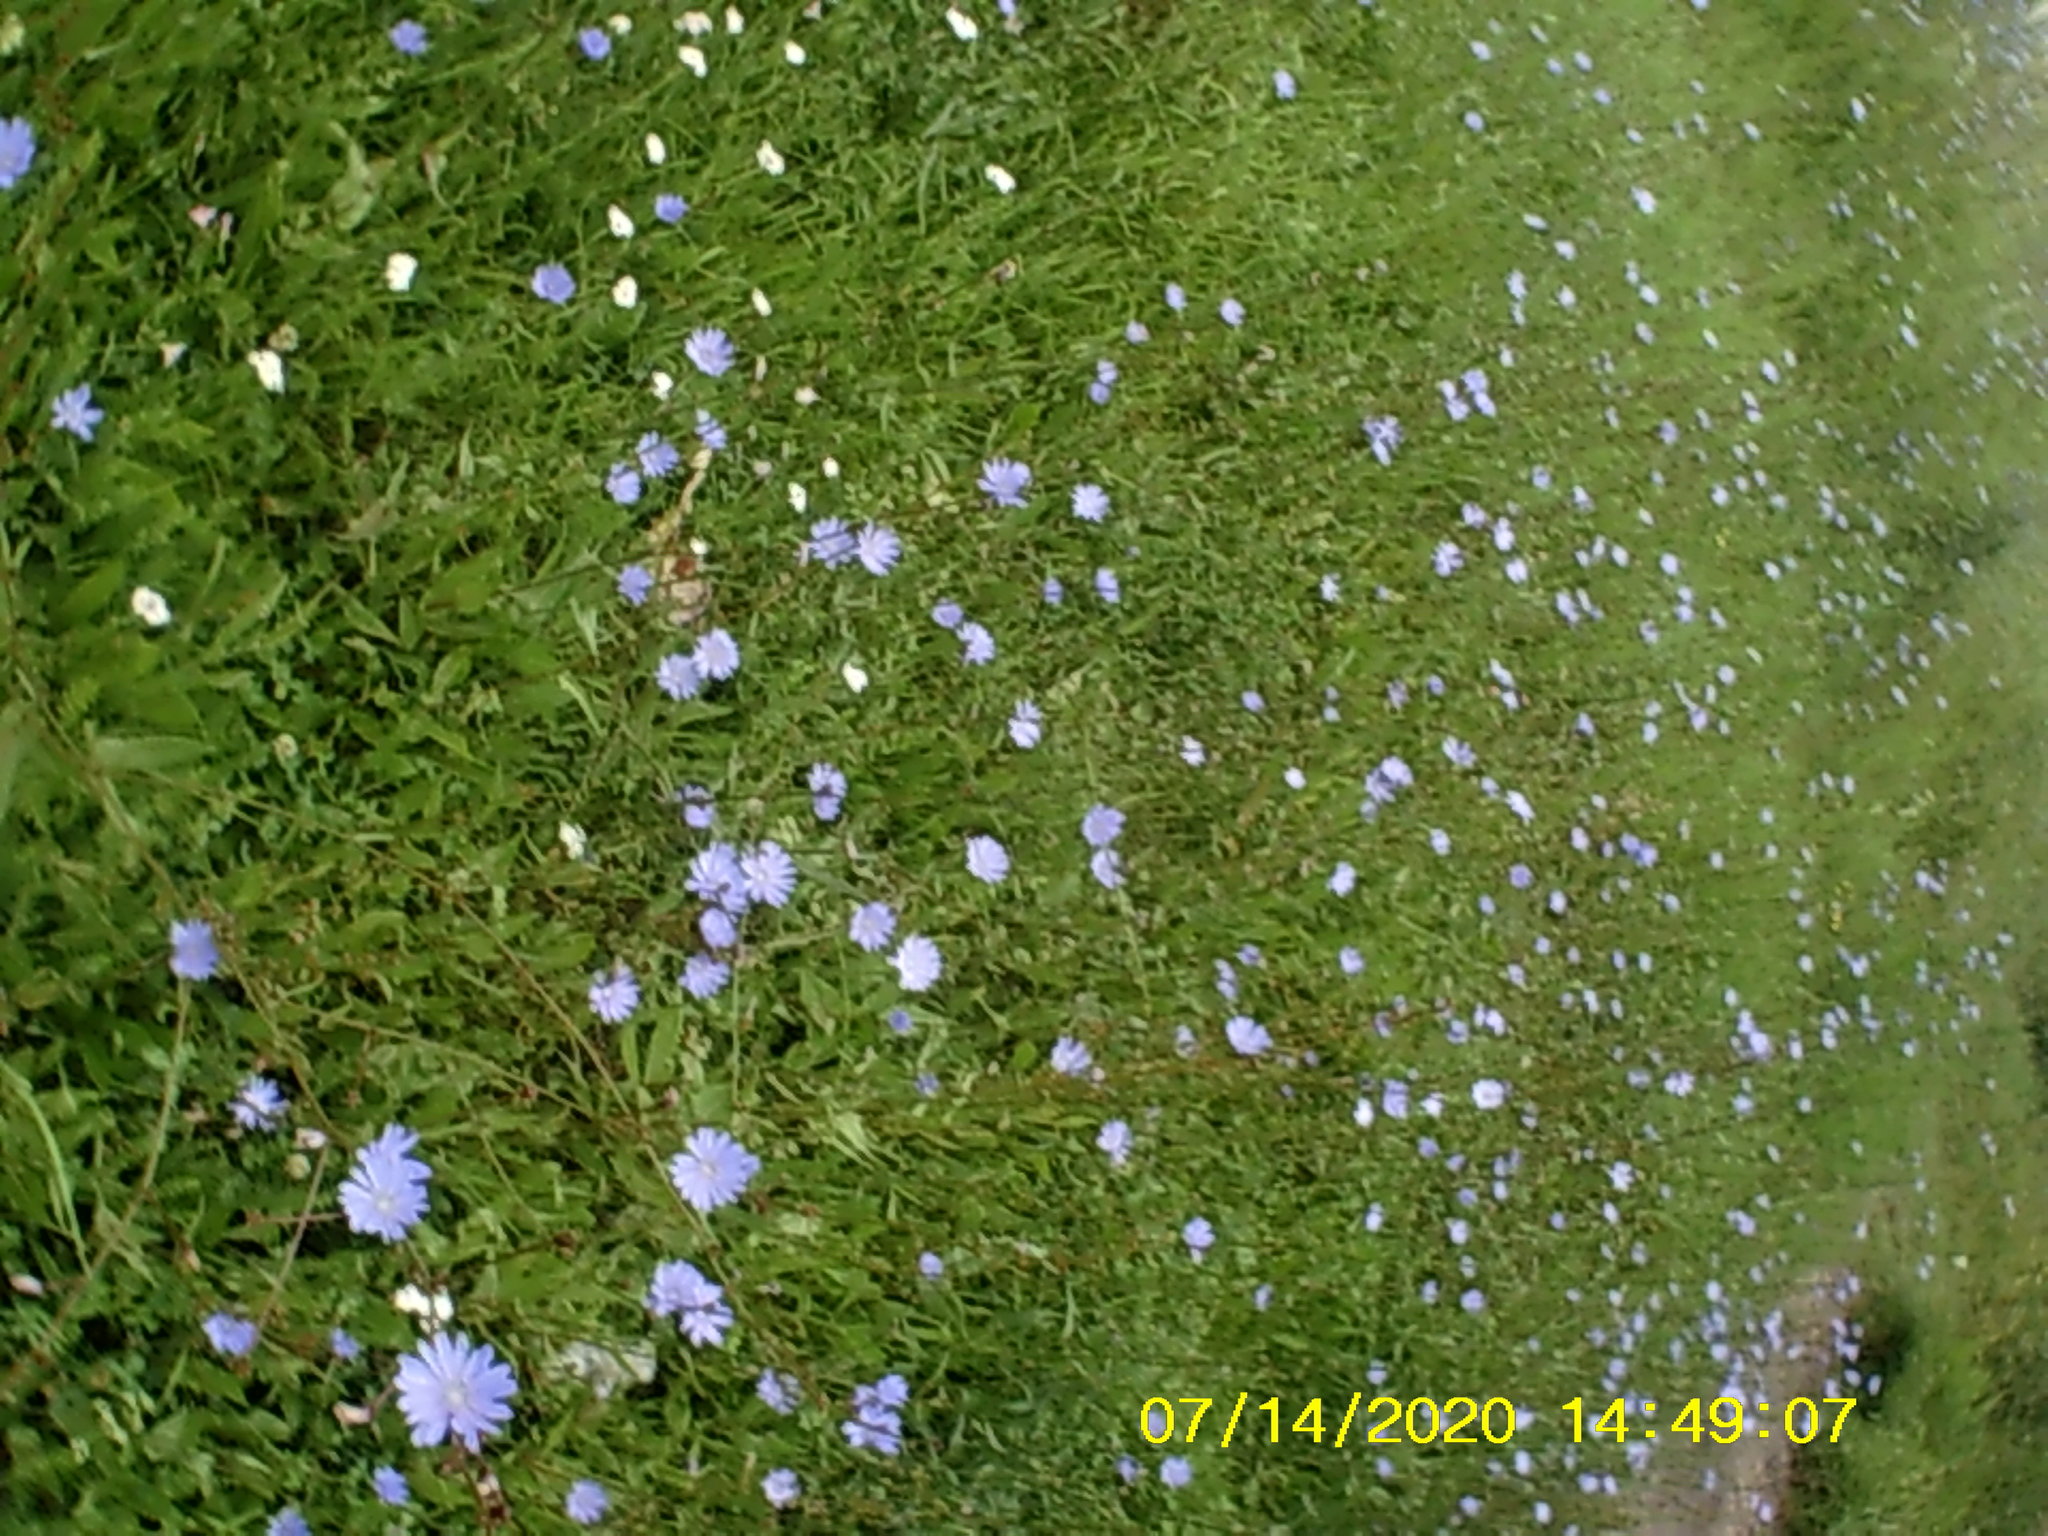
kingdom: Plantae
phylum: Tracheophyta
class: Magnoliopsida
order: Asterales
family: Asteraceae
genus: Cichorium
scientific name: Cichorium intybus
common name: Chicory
